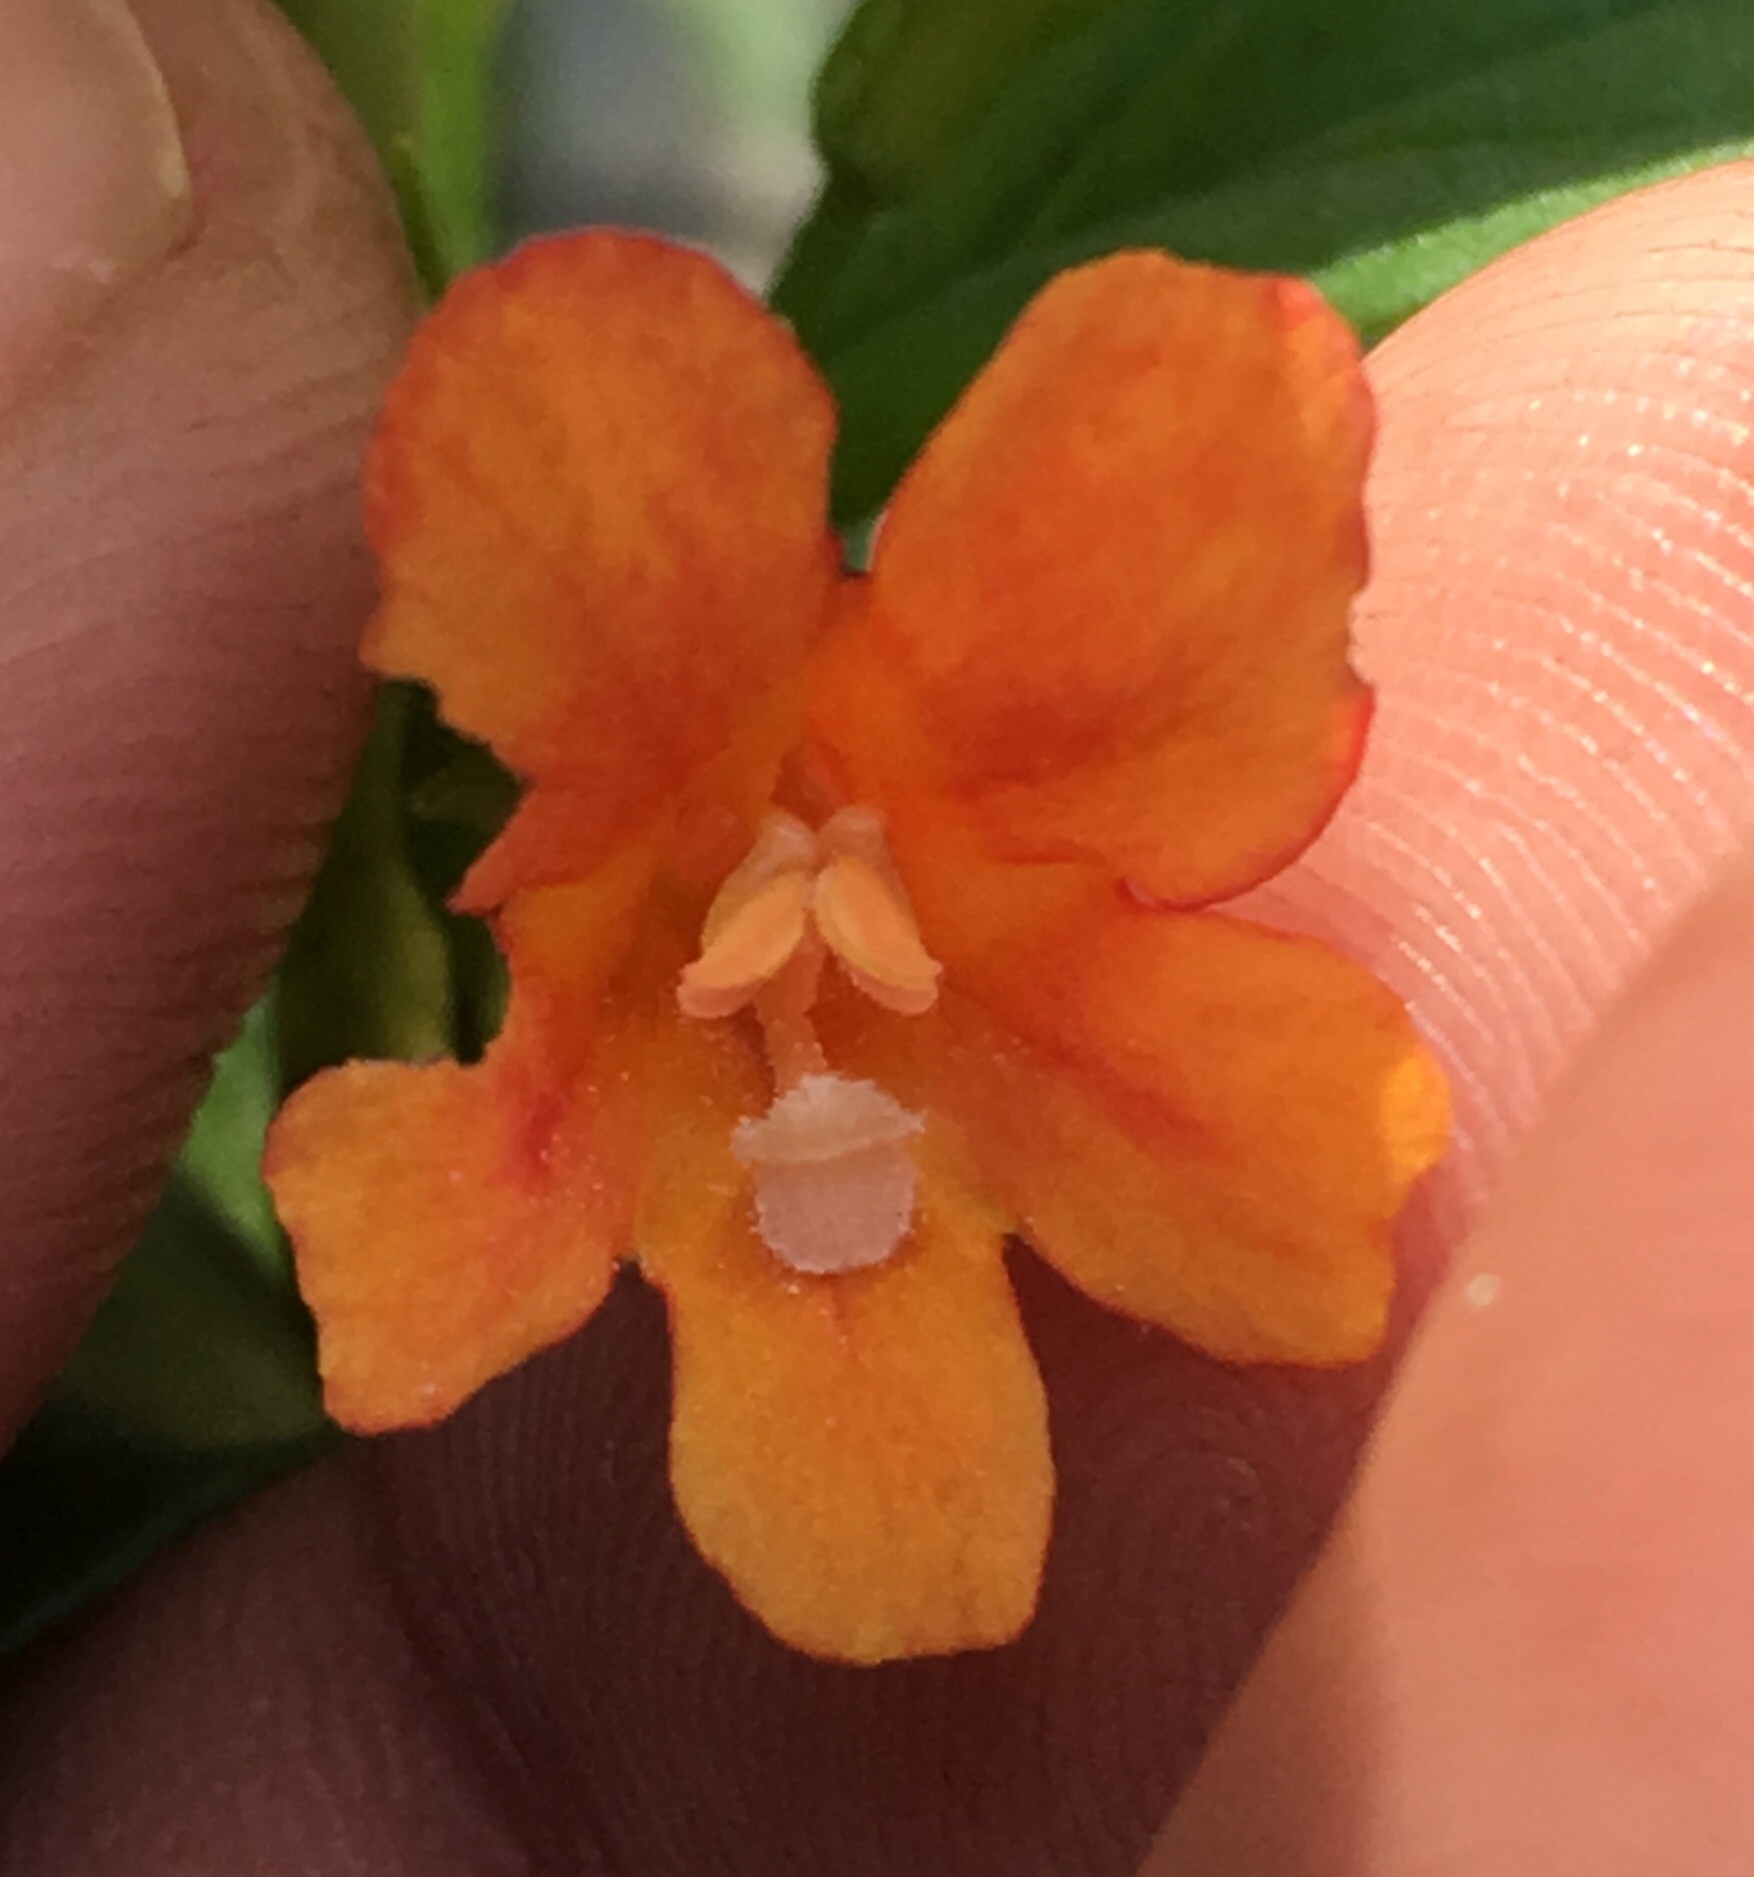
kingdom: Plantae
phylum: Tracheophyta
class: Magnoliopsida
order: Lamiales
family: Phrymaceae
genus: Diplacus
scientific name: Diplacus parviflorus
